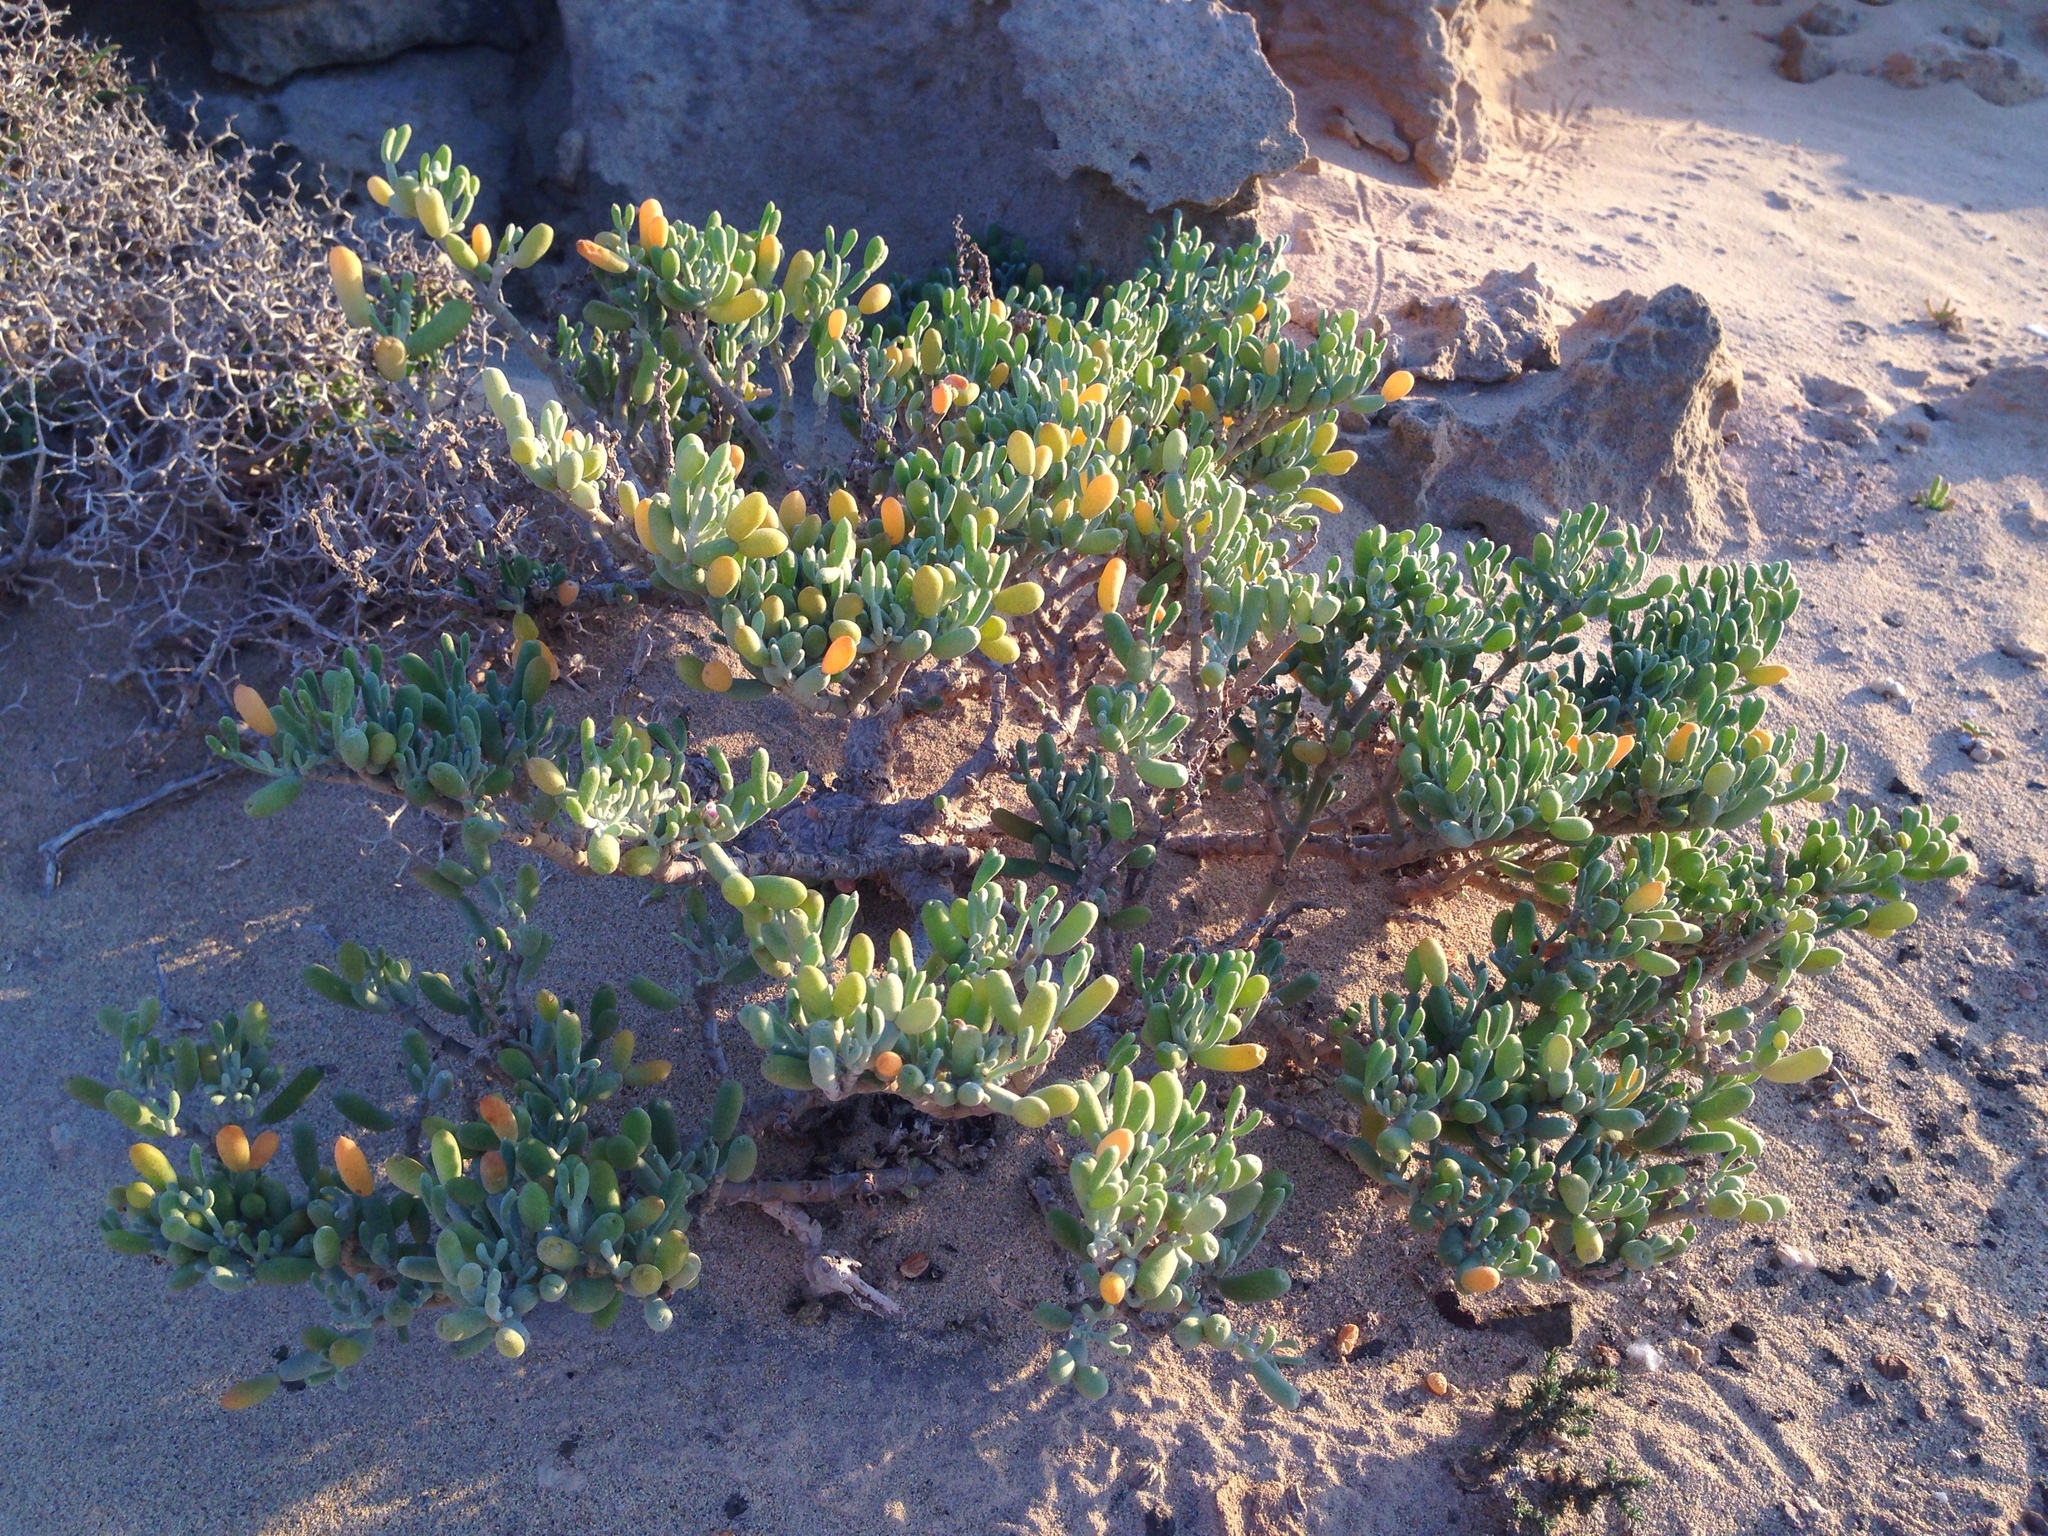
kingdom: Plantae
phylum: Tracheophyta
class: Magnoliopsida
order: Zygophyllales
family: Zygophyllaceae
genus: Tetraena
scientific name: Tetraena fontanesii
